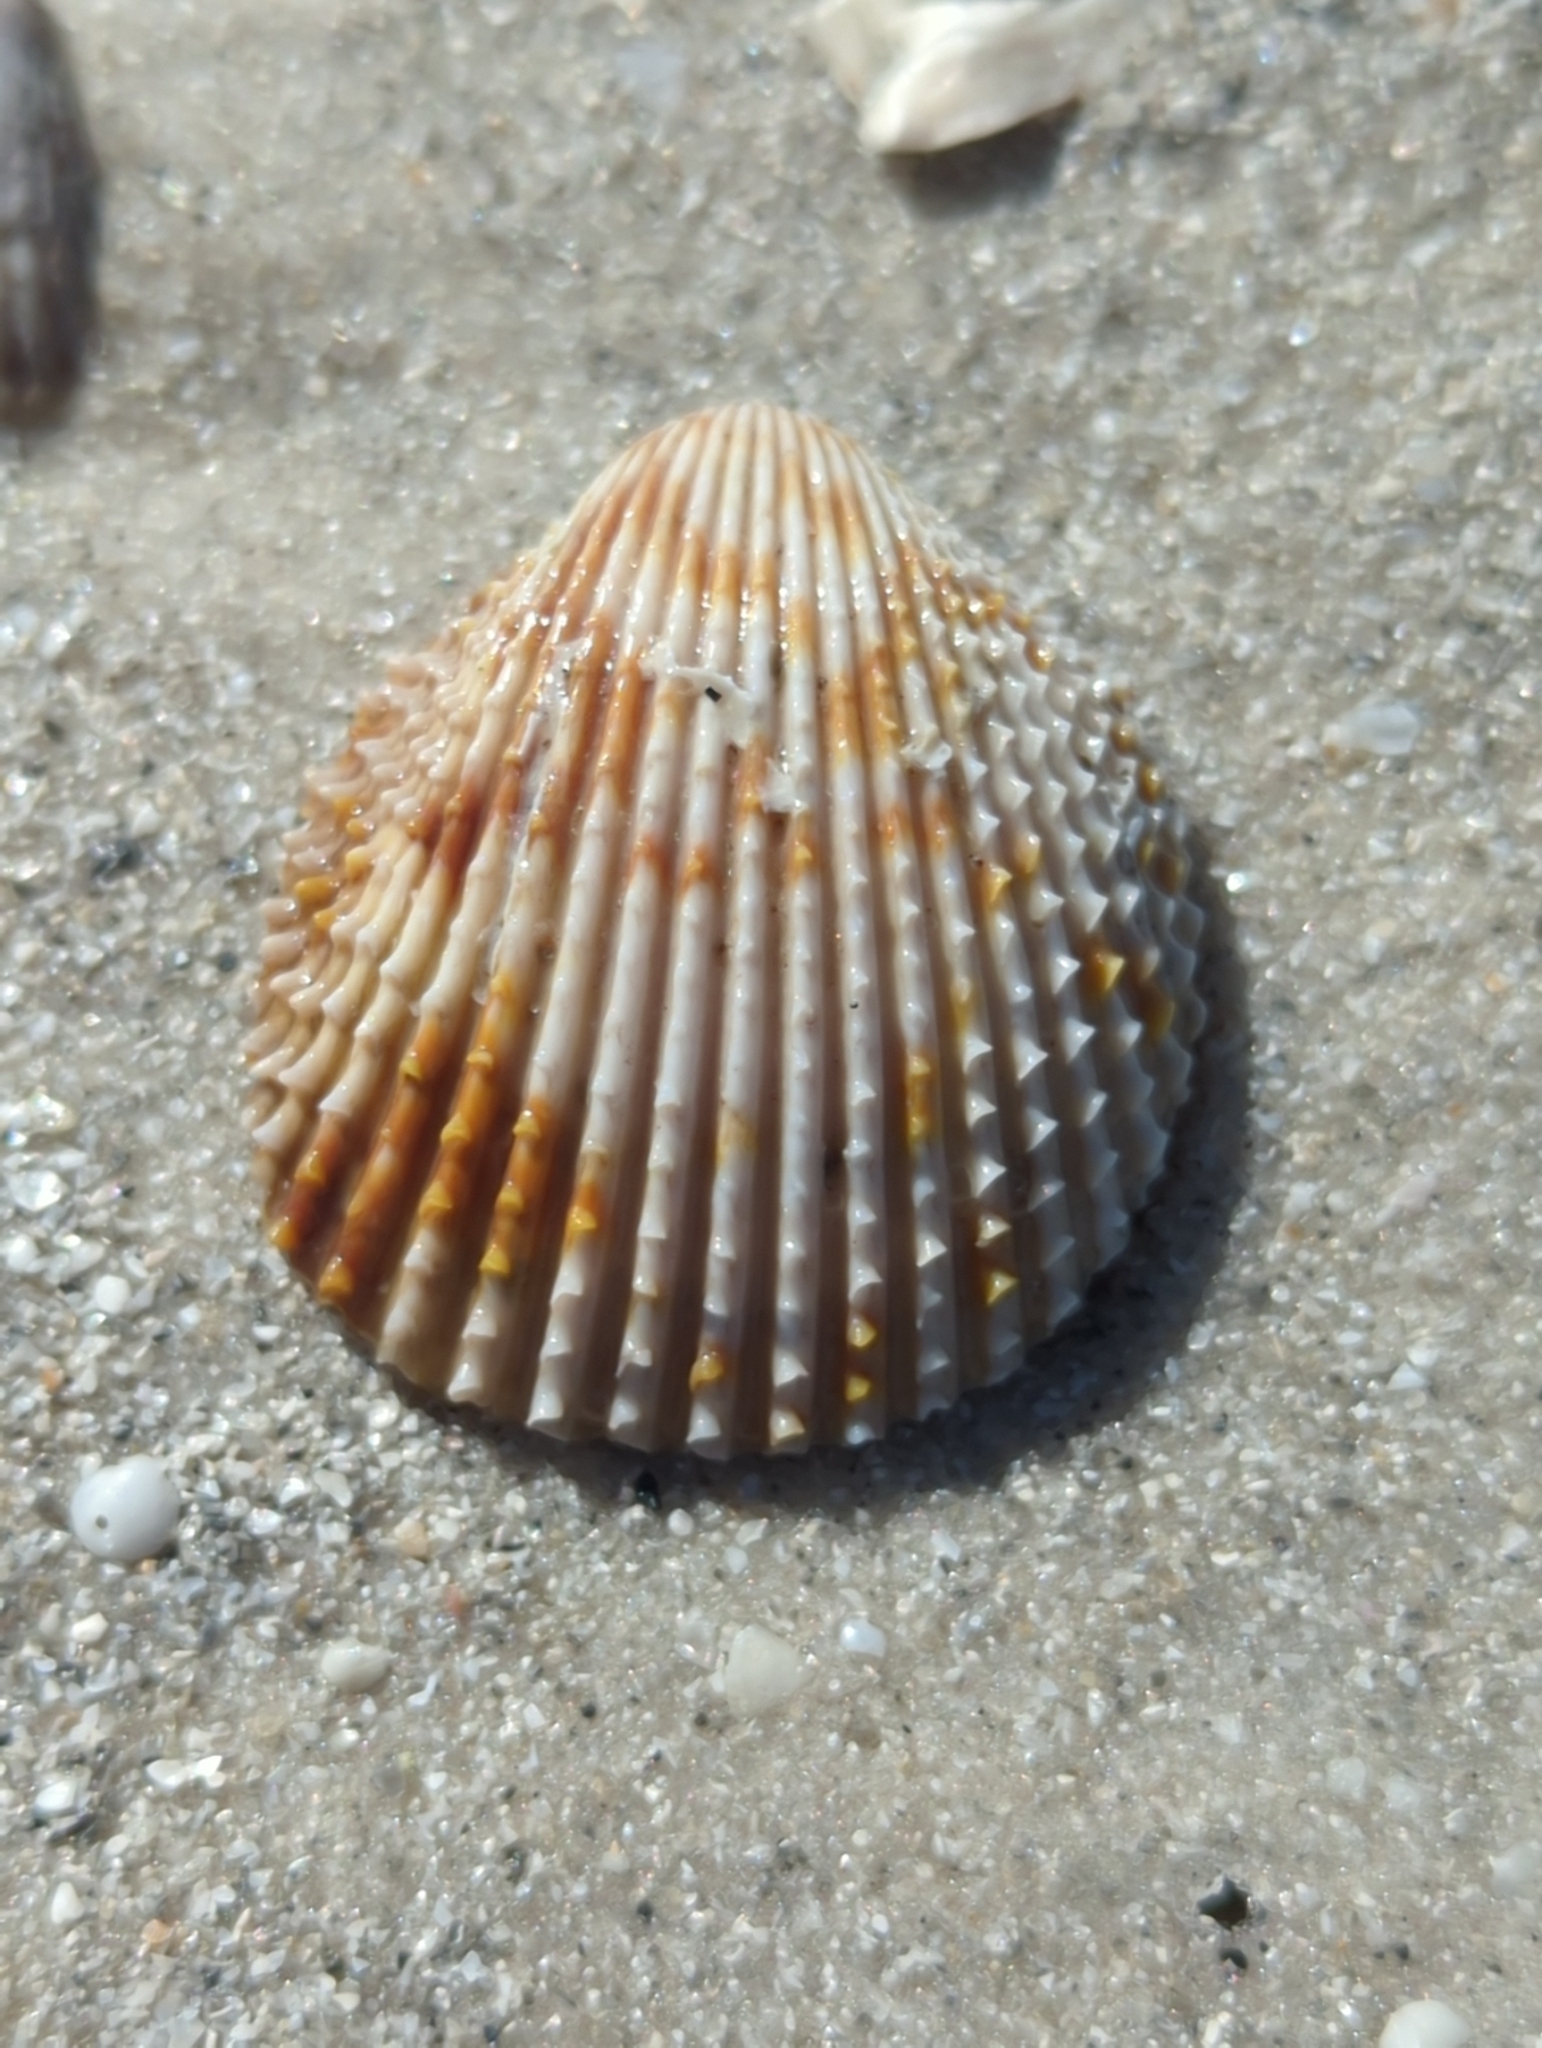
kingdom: Animalia
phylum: Mollusca
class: Bivalvia
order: Cardiida
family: Cardiidae
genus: Trachycardium
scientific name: Trachycardium egmontianum
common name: Florida pricklycockle
